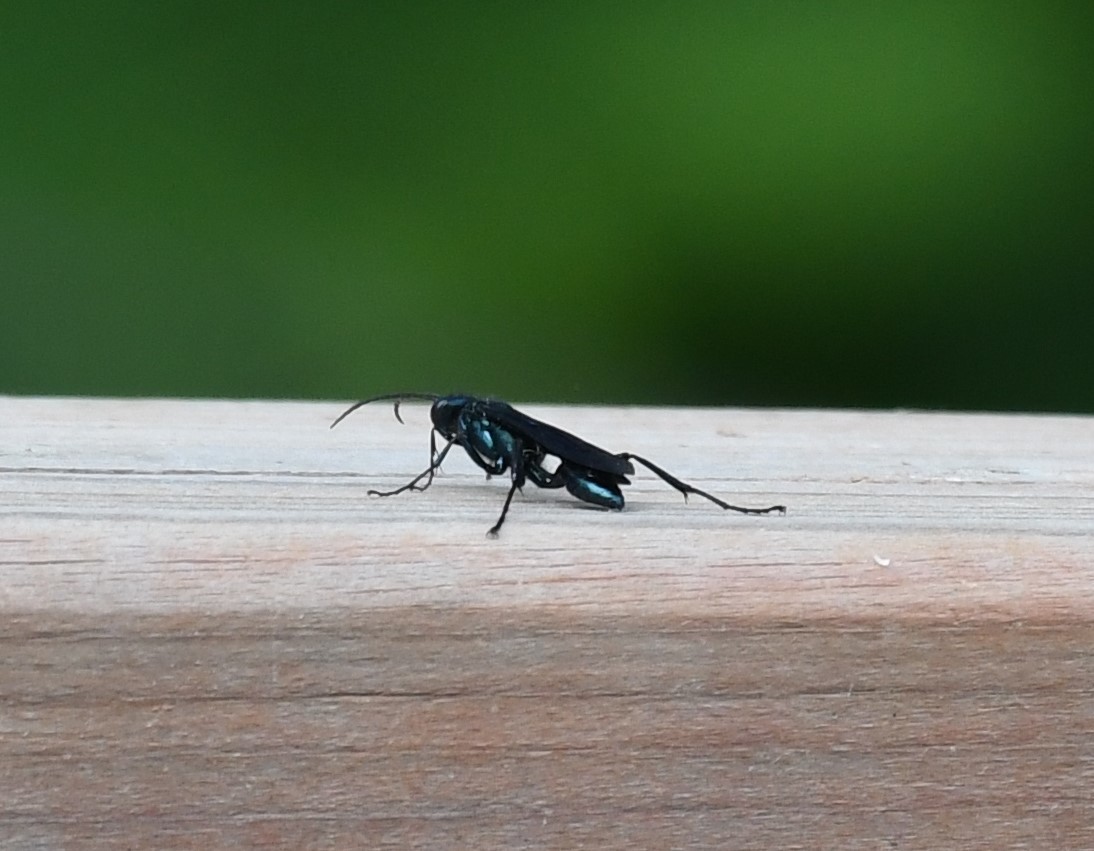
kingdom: Animalia
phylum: Arthropoda
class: Insecta
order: Hymenoptera
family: Sphecidae
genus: Chalybion
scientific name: Chalybion californicum
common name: Mud dauber
